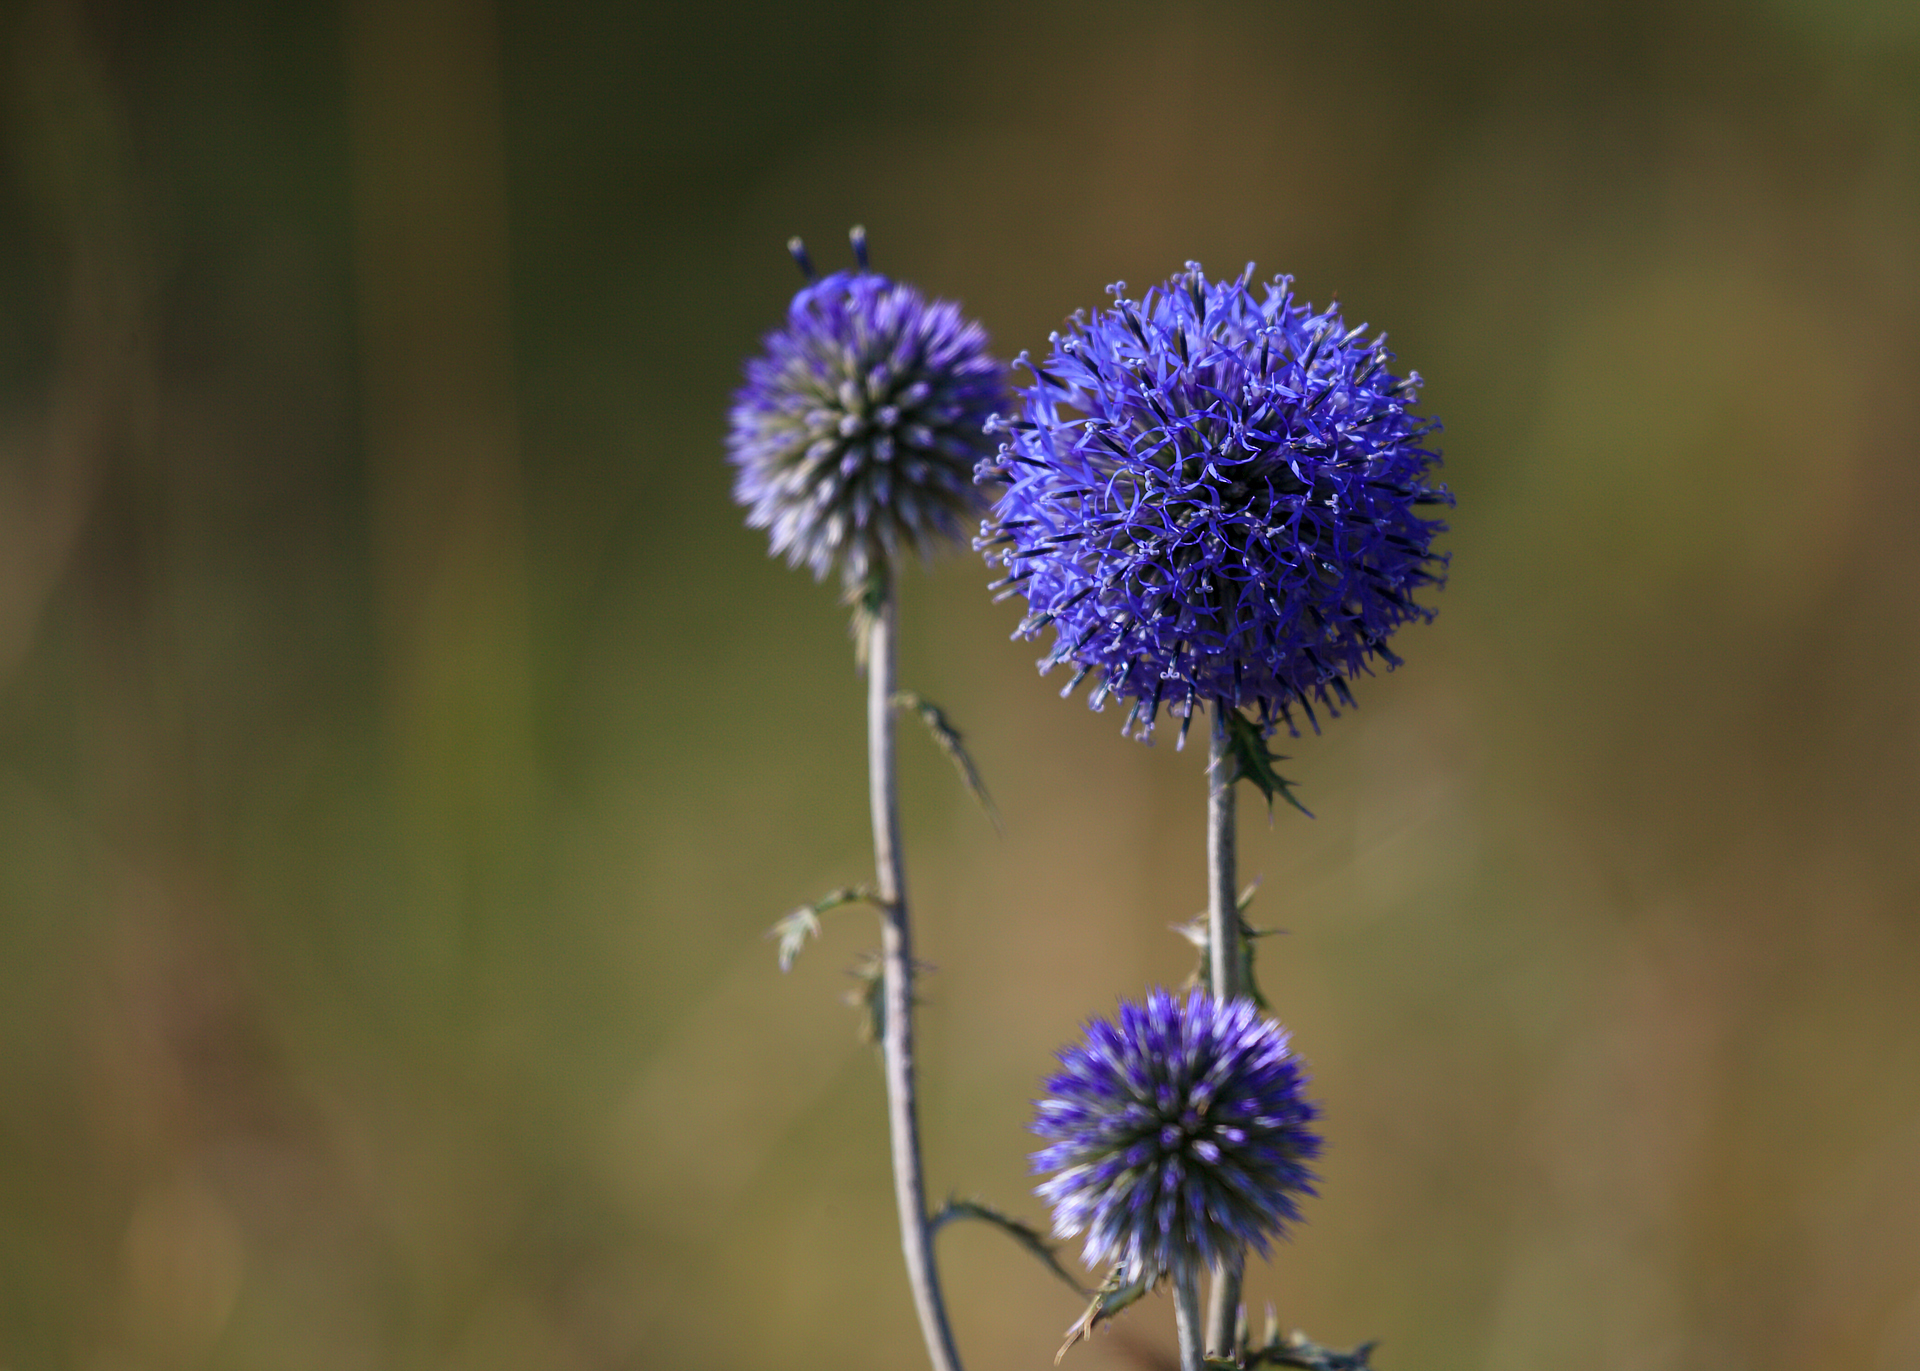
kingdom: Plantae
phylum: Tracheophyta
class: Magnoliopsida
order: Asterales
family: Asteraceae
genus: Echinops
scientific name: Echinops tataricus
